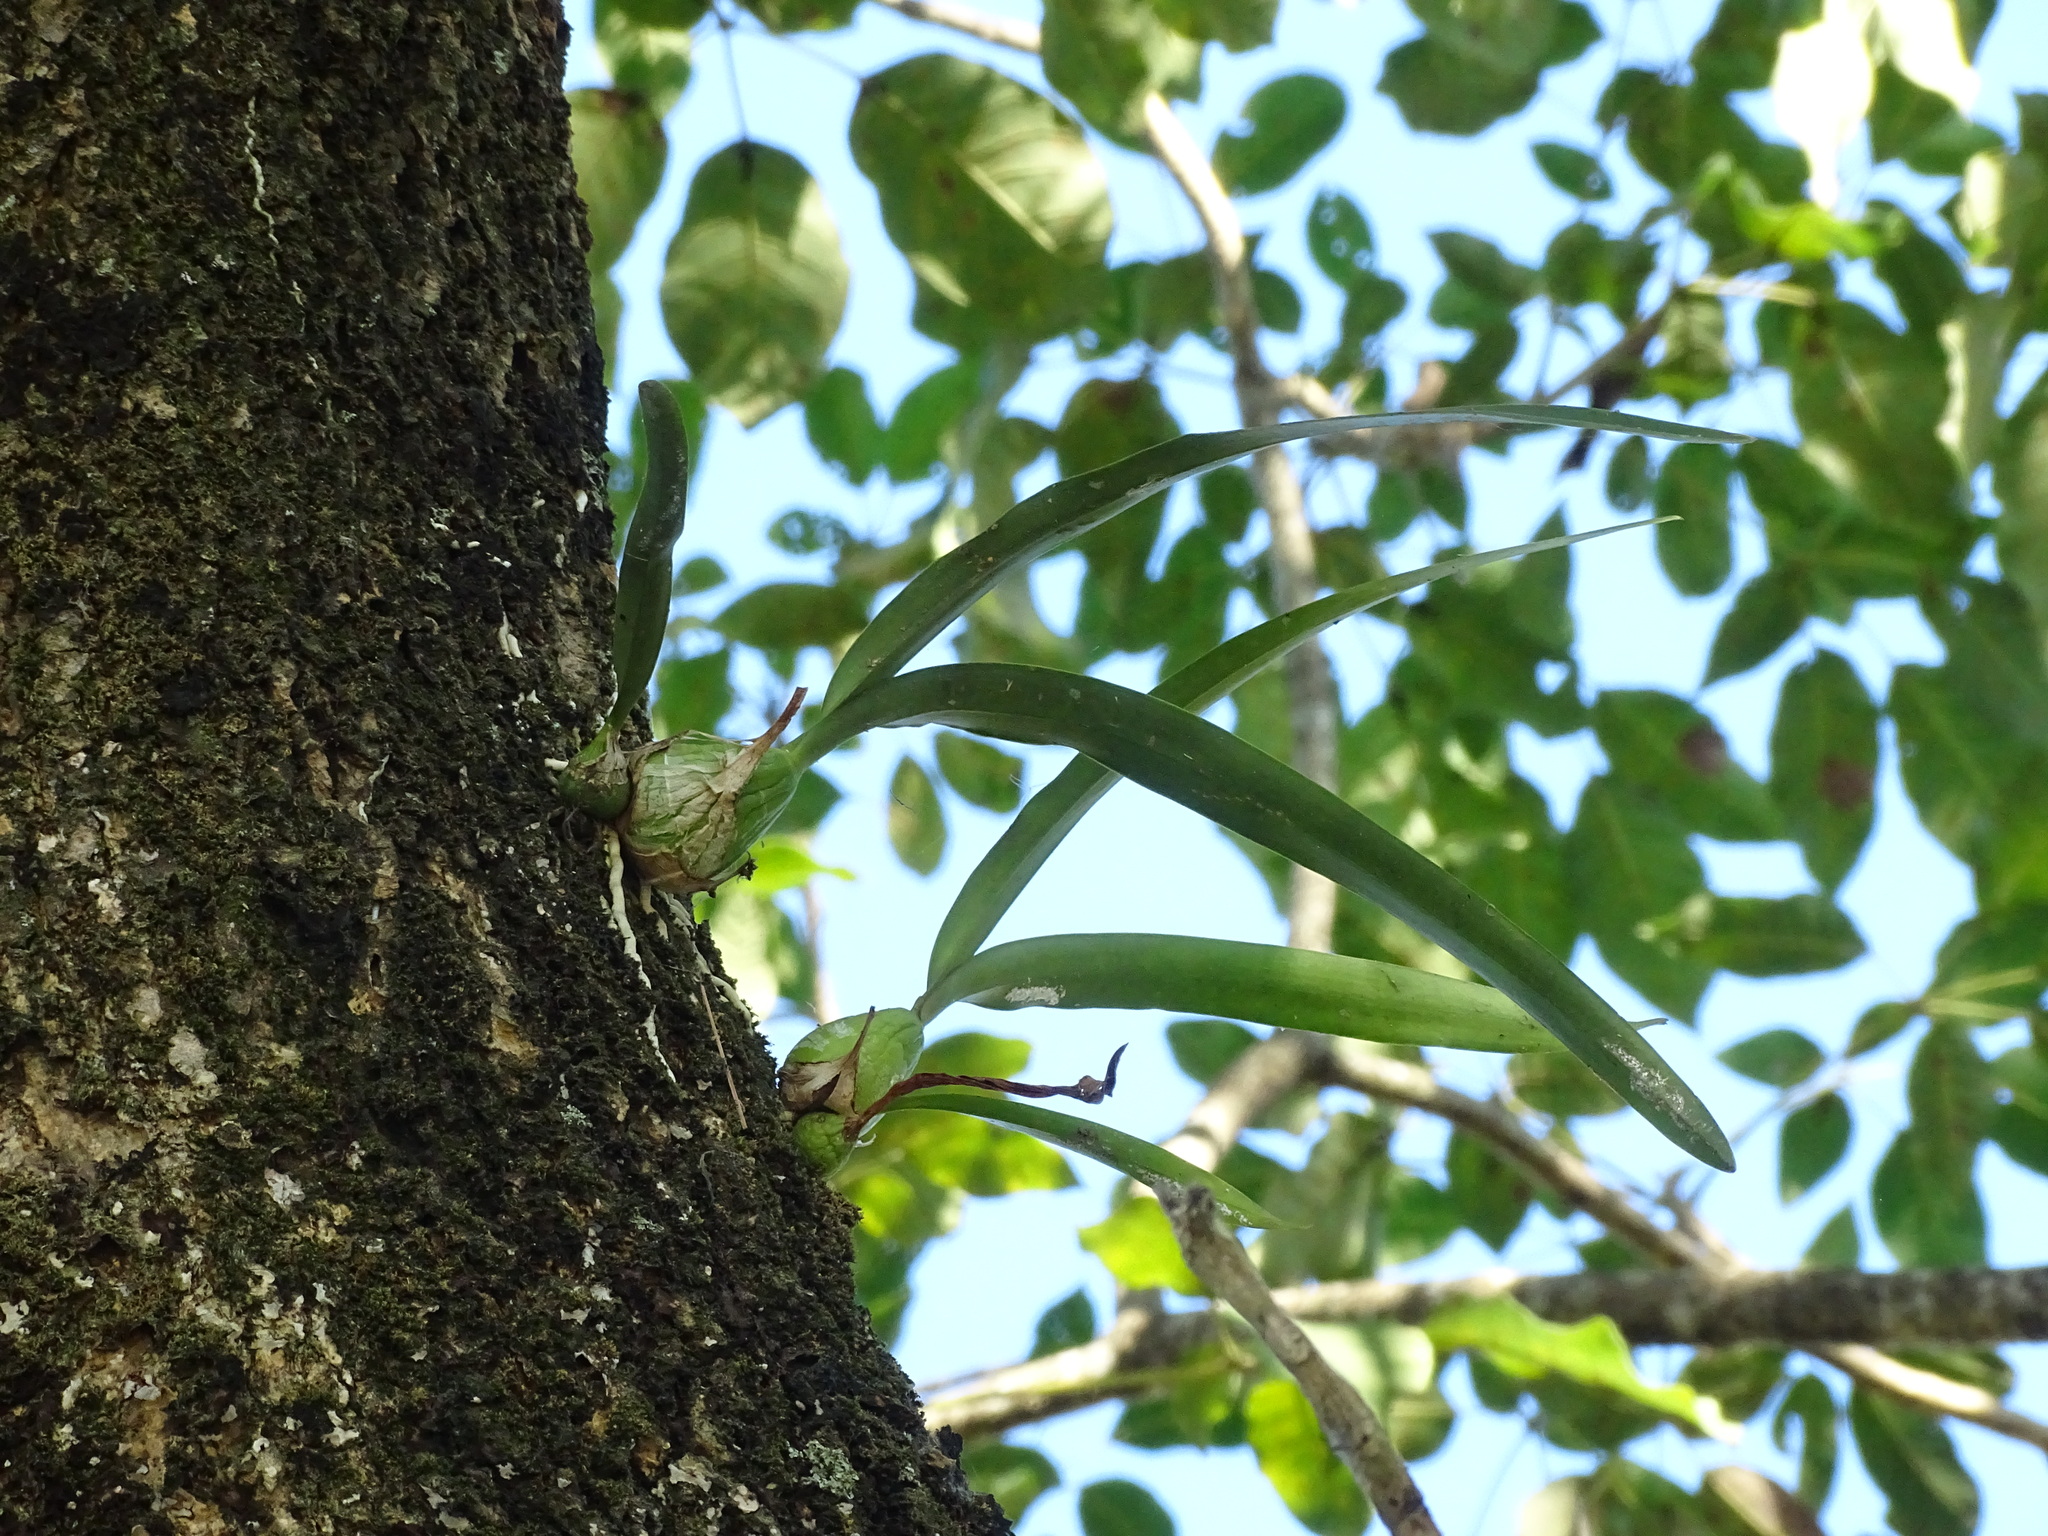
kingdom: Plantae
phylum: Tracheophyta
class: Liliopsida
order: Asparagales
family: Orchidaceae
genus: Encyclia
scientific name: Encyclia cordigera
